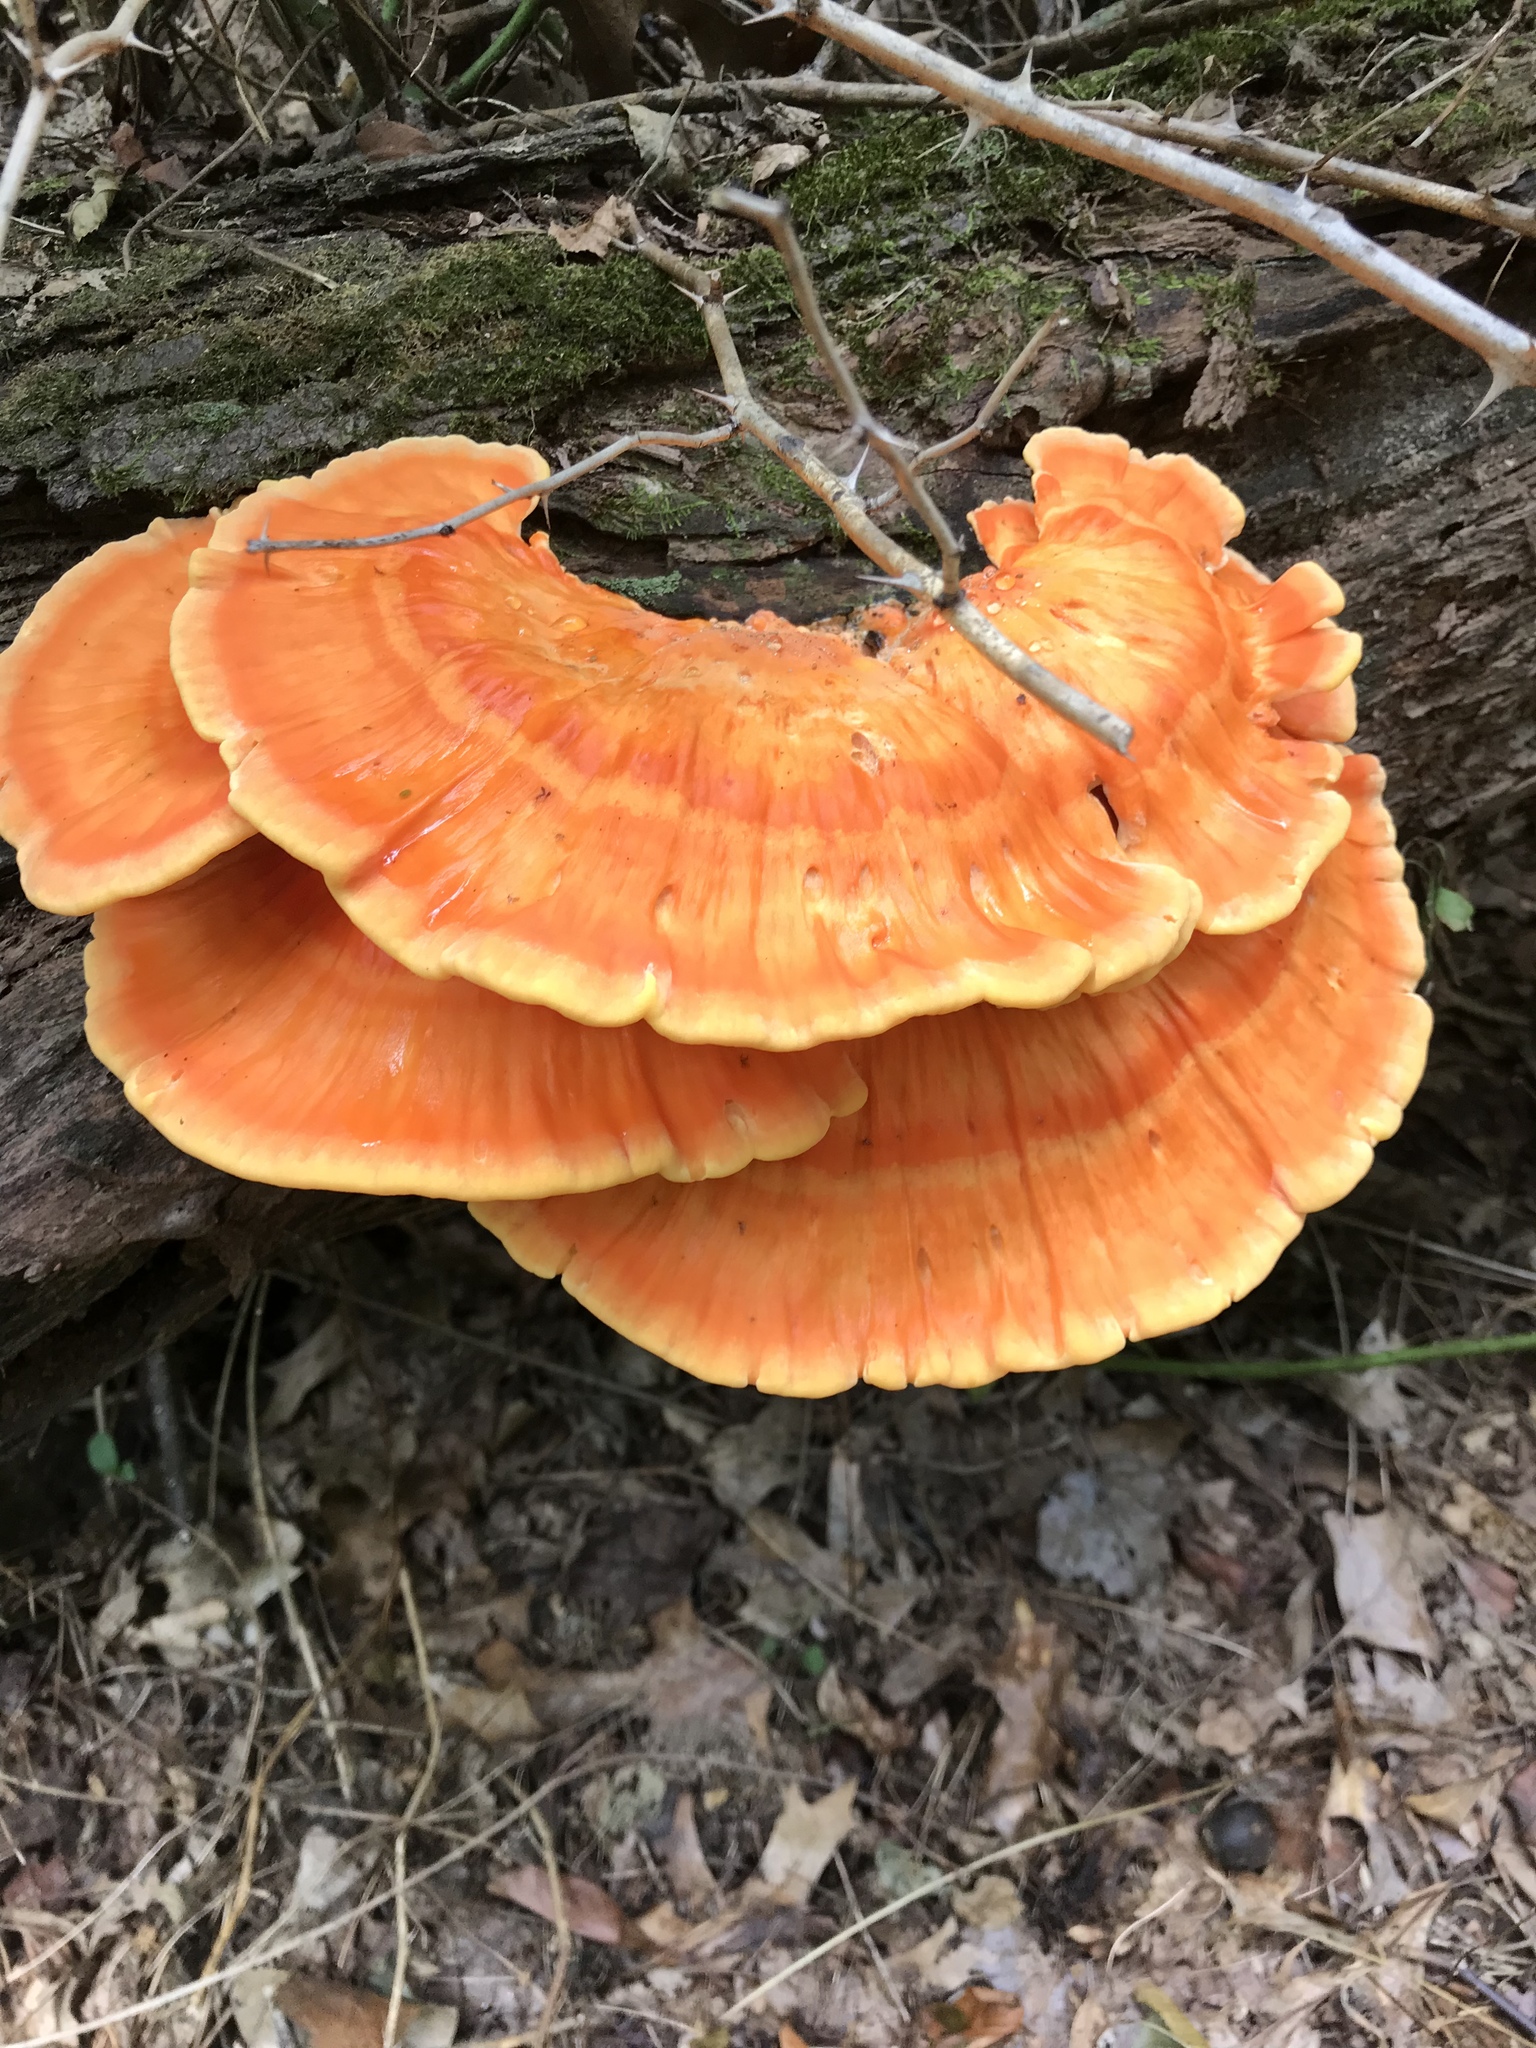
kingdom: Fungi
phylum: Basidiomycota
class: Agaricomycetes
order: Polyporales
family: Laetiporaceae
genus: Laetiporus
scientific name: Laetiporus sulphureus
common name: Chicken of the woods
